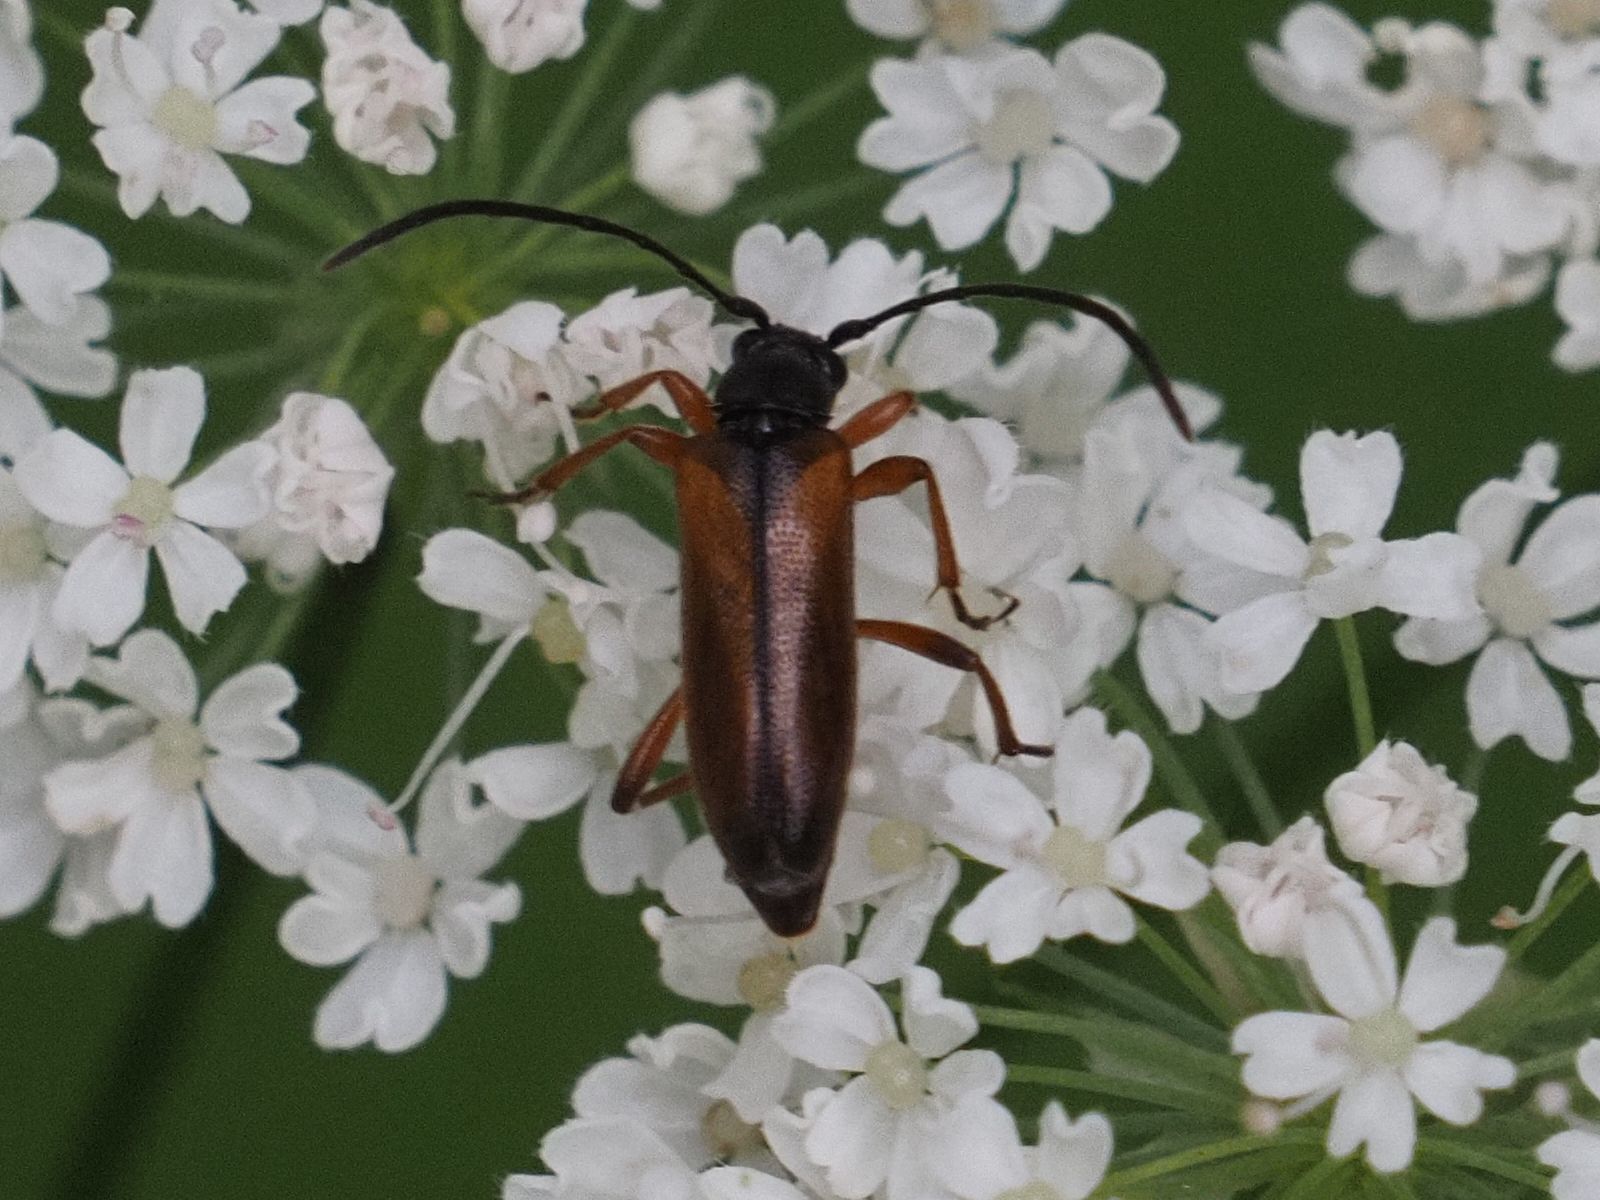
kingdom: Animalia
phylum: Arthropoda
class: Insecta
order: Coleoptera
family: Cerambycidae
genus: Alosterna
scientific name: Alosterna tabacicolor
